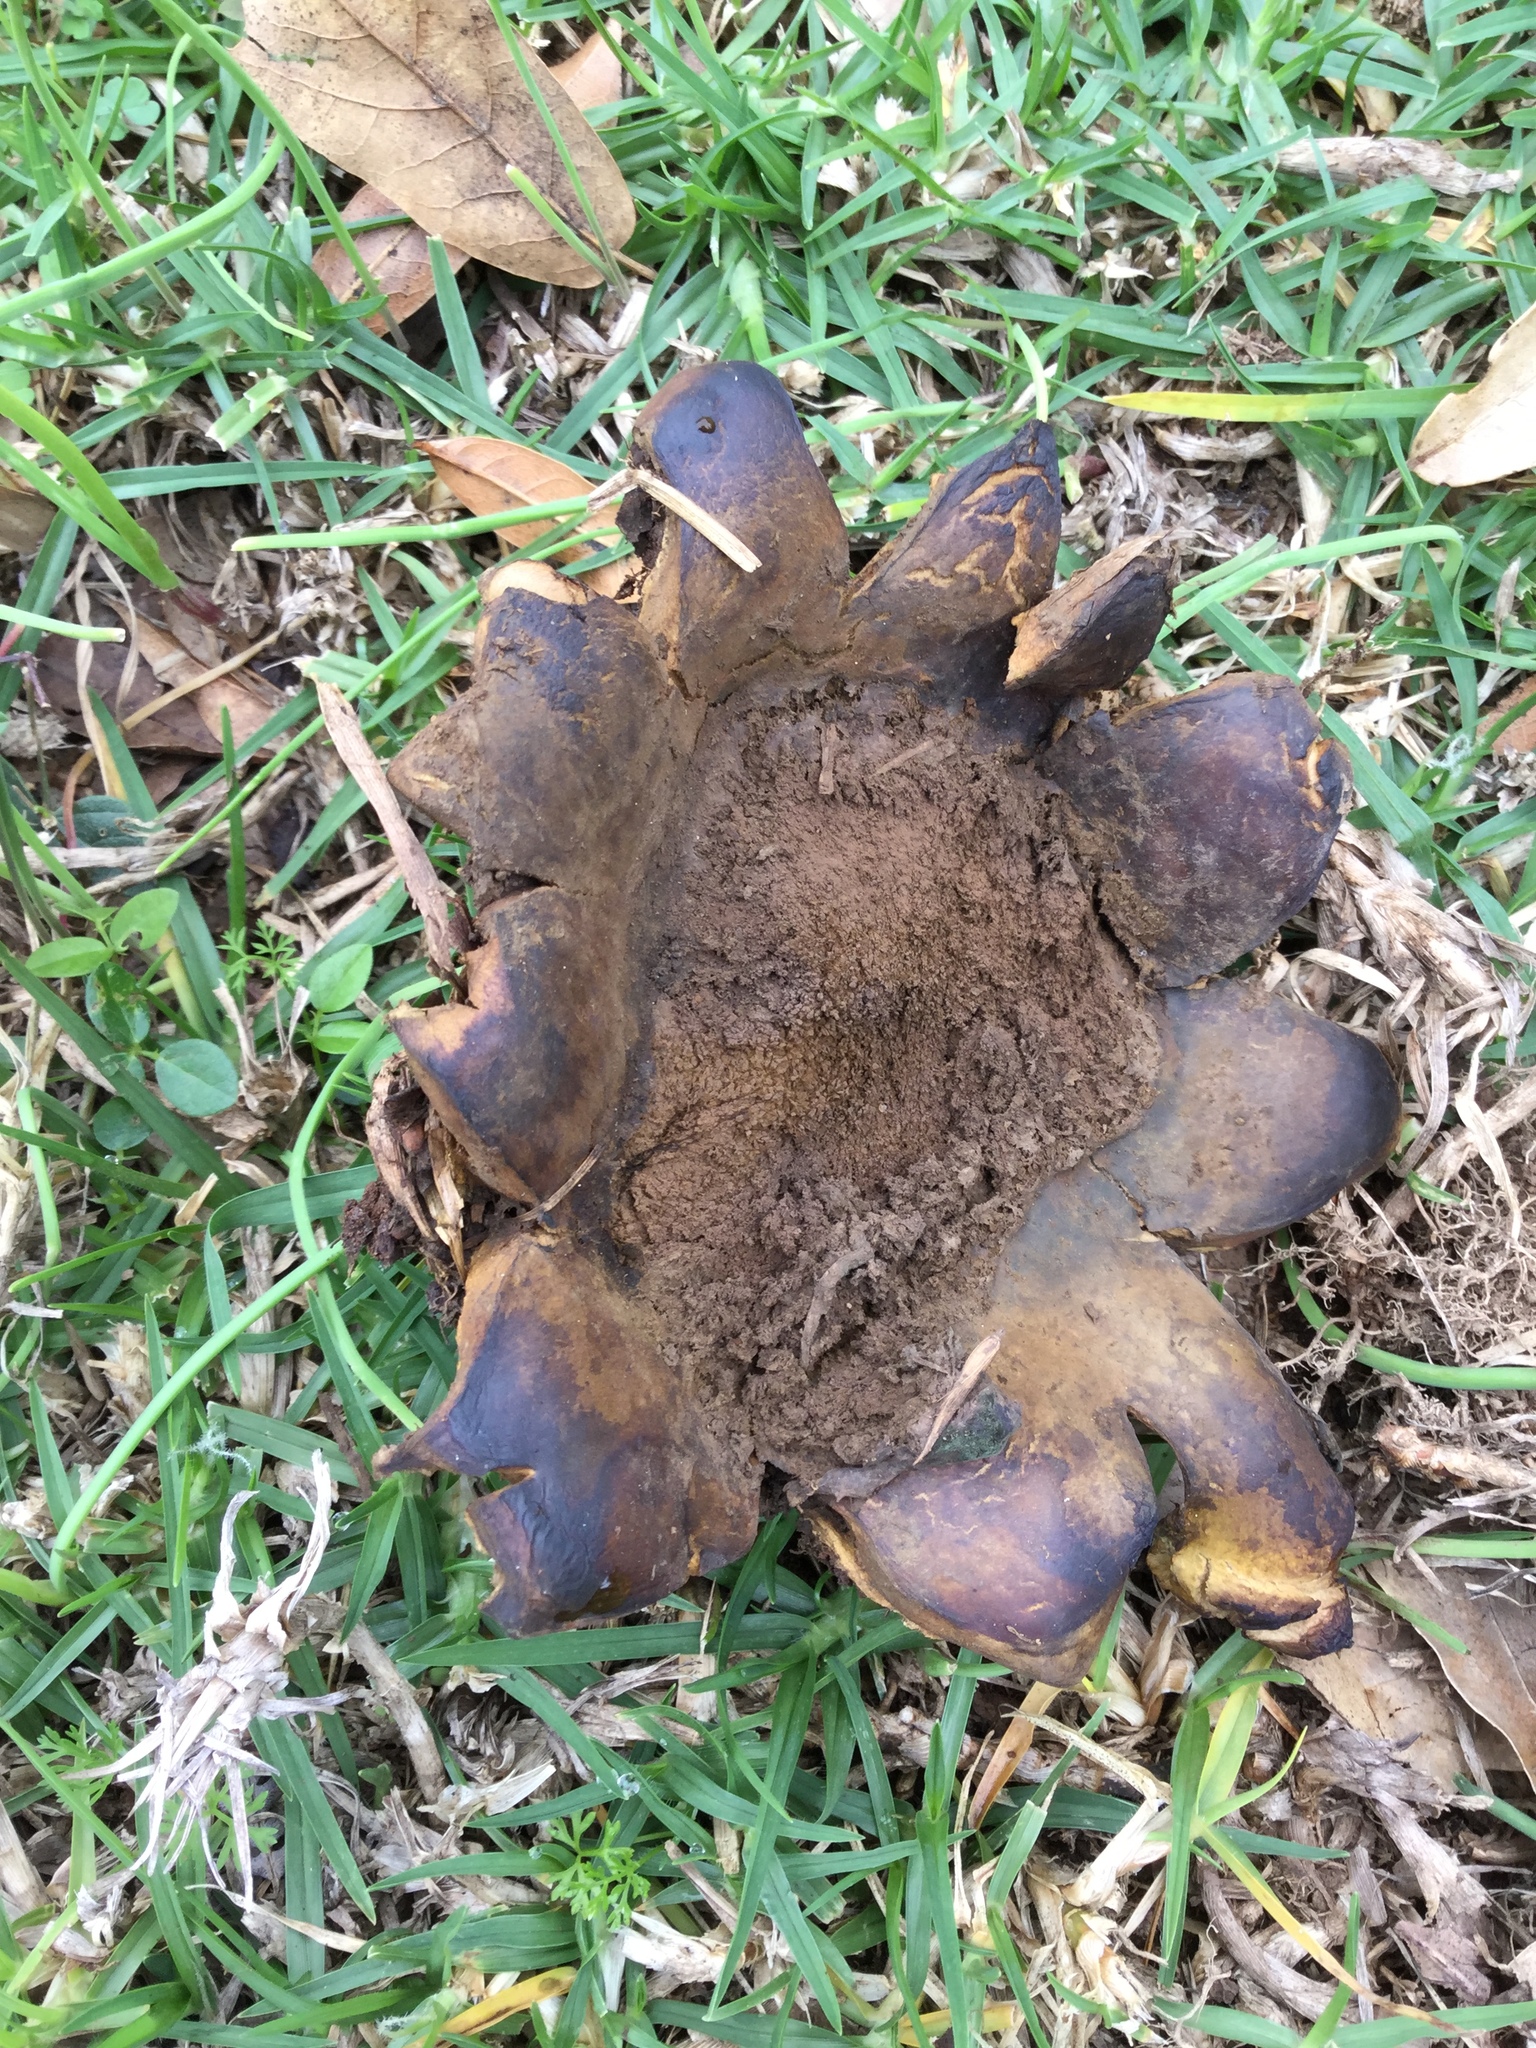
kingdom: Fungi
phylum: Basidiomycota
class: Agaricomycetes
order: Boletales
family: Sclerodermataceae
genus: Scleroderma
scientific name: Scleroderma polyrhizum
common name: Many-rooted earthball
